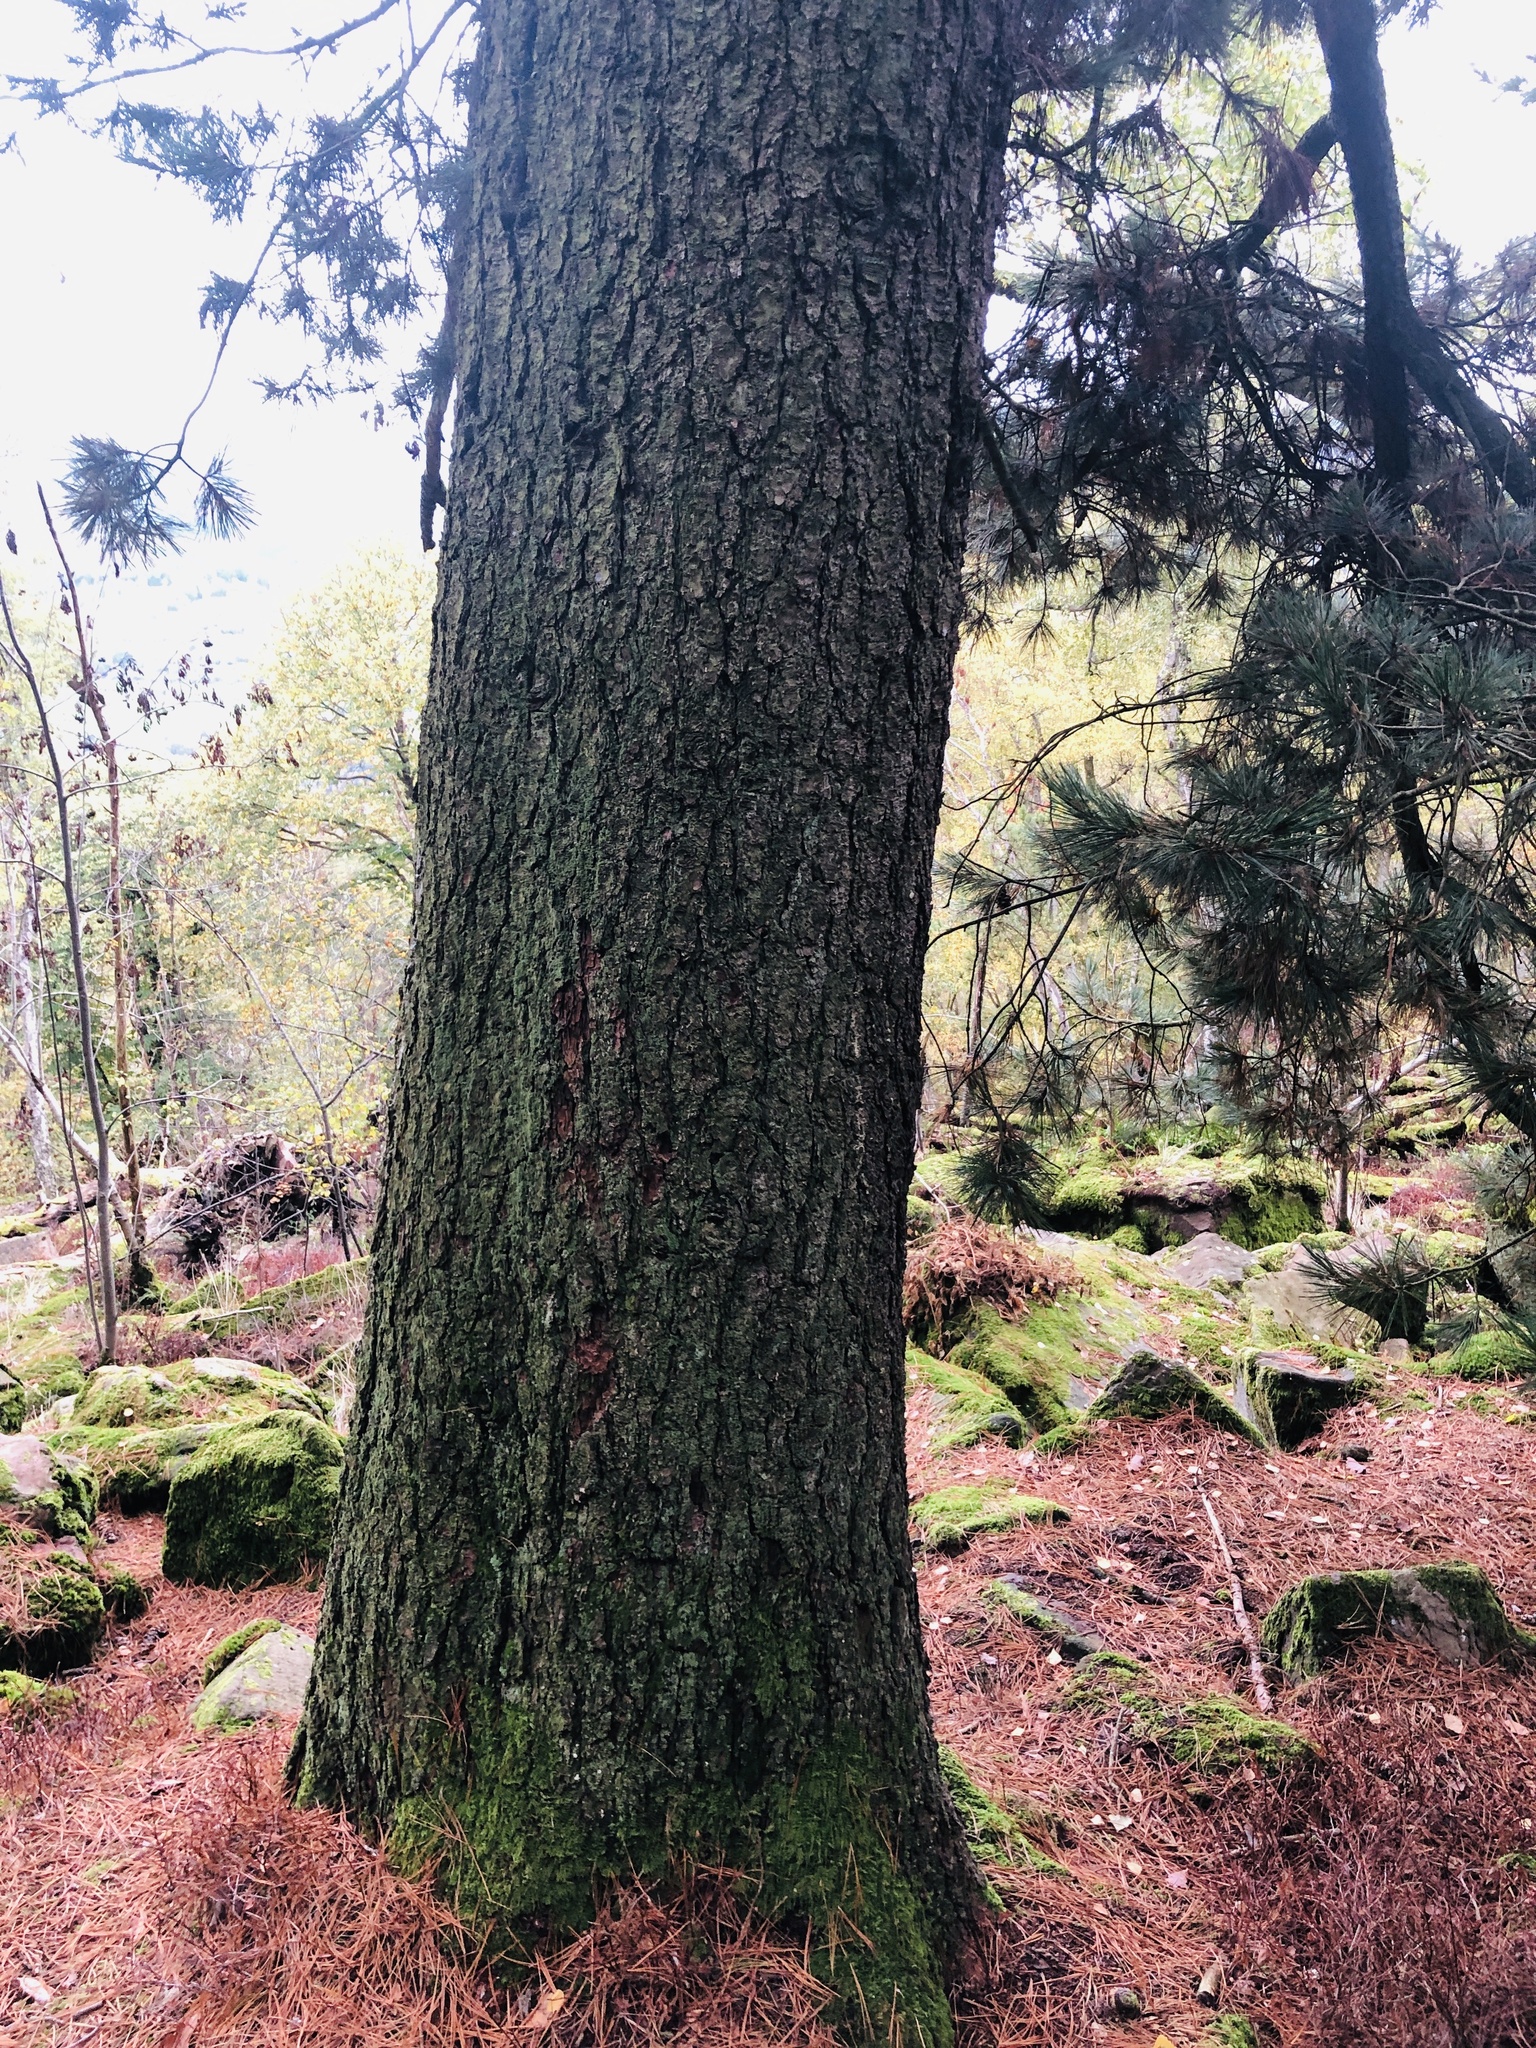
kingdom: Plantae
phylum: Tracheophyta
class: Pinopsida
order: Pinales
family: Pinaceae
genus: Pinus
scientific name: Pinus sylvestris
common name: Scots pine
